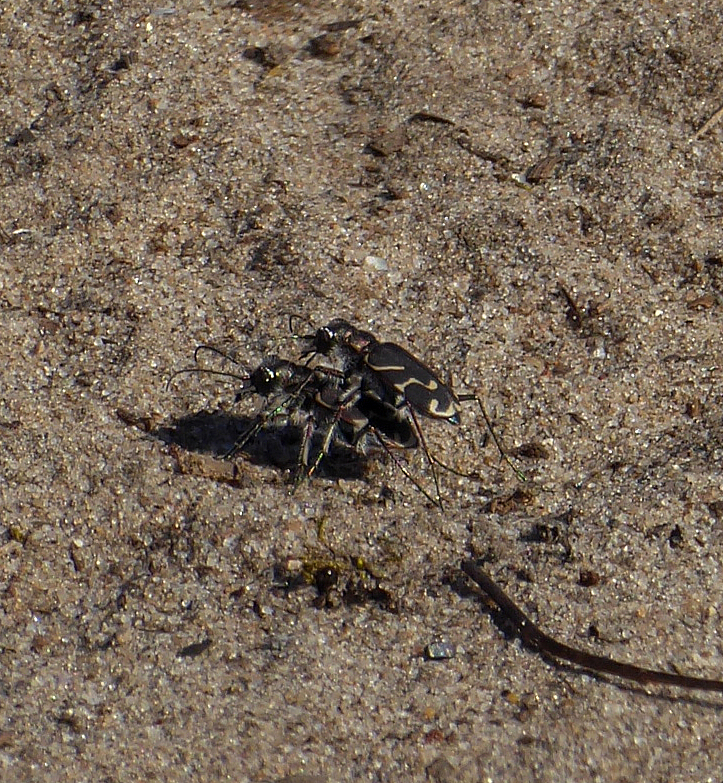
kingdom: Animalia
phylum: Arthropoda
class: Insecta
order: Coleoptera
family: Carabidae
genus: Cicindela
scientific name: Cicindela tranquebarica
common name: Oblique-lined tiger beetle
